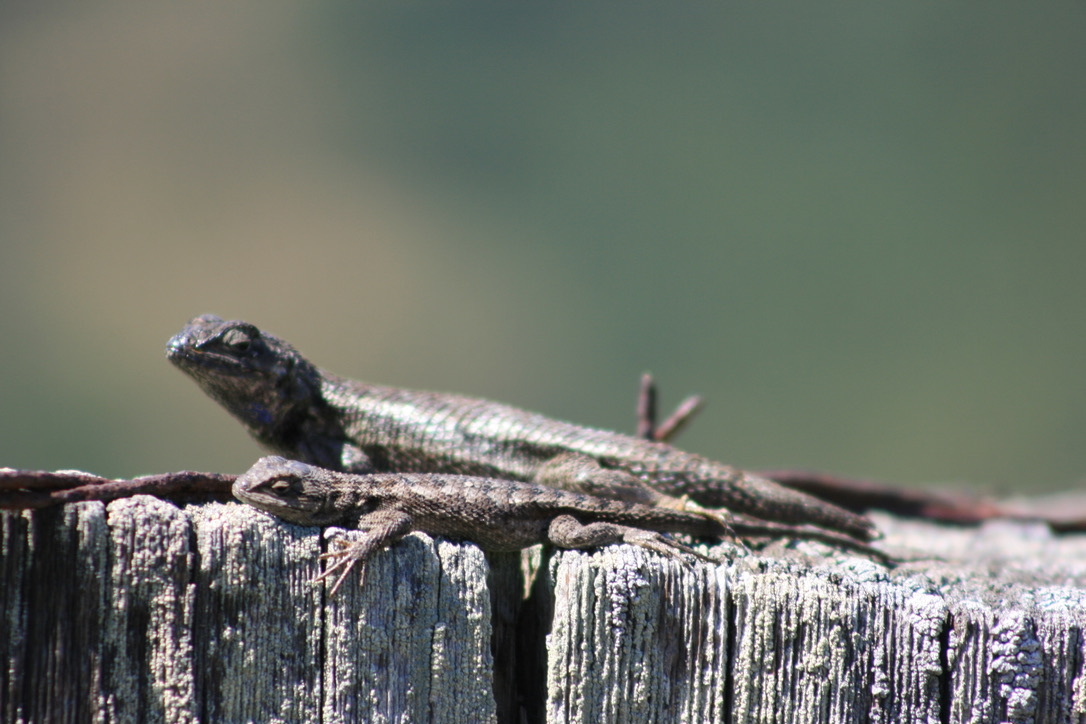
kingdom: Animalia
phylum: Chordata
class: Squamata
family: Phrynosomatidae
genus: Sceloporus
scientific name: Sceloporus occidentalis
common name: Western fence lizard
